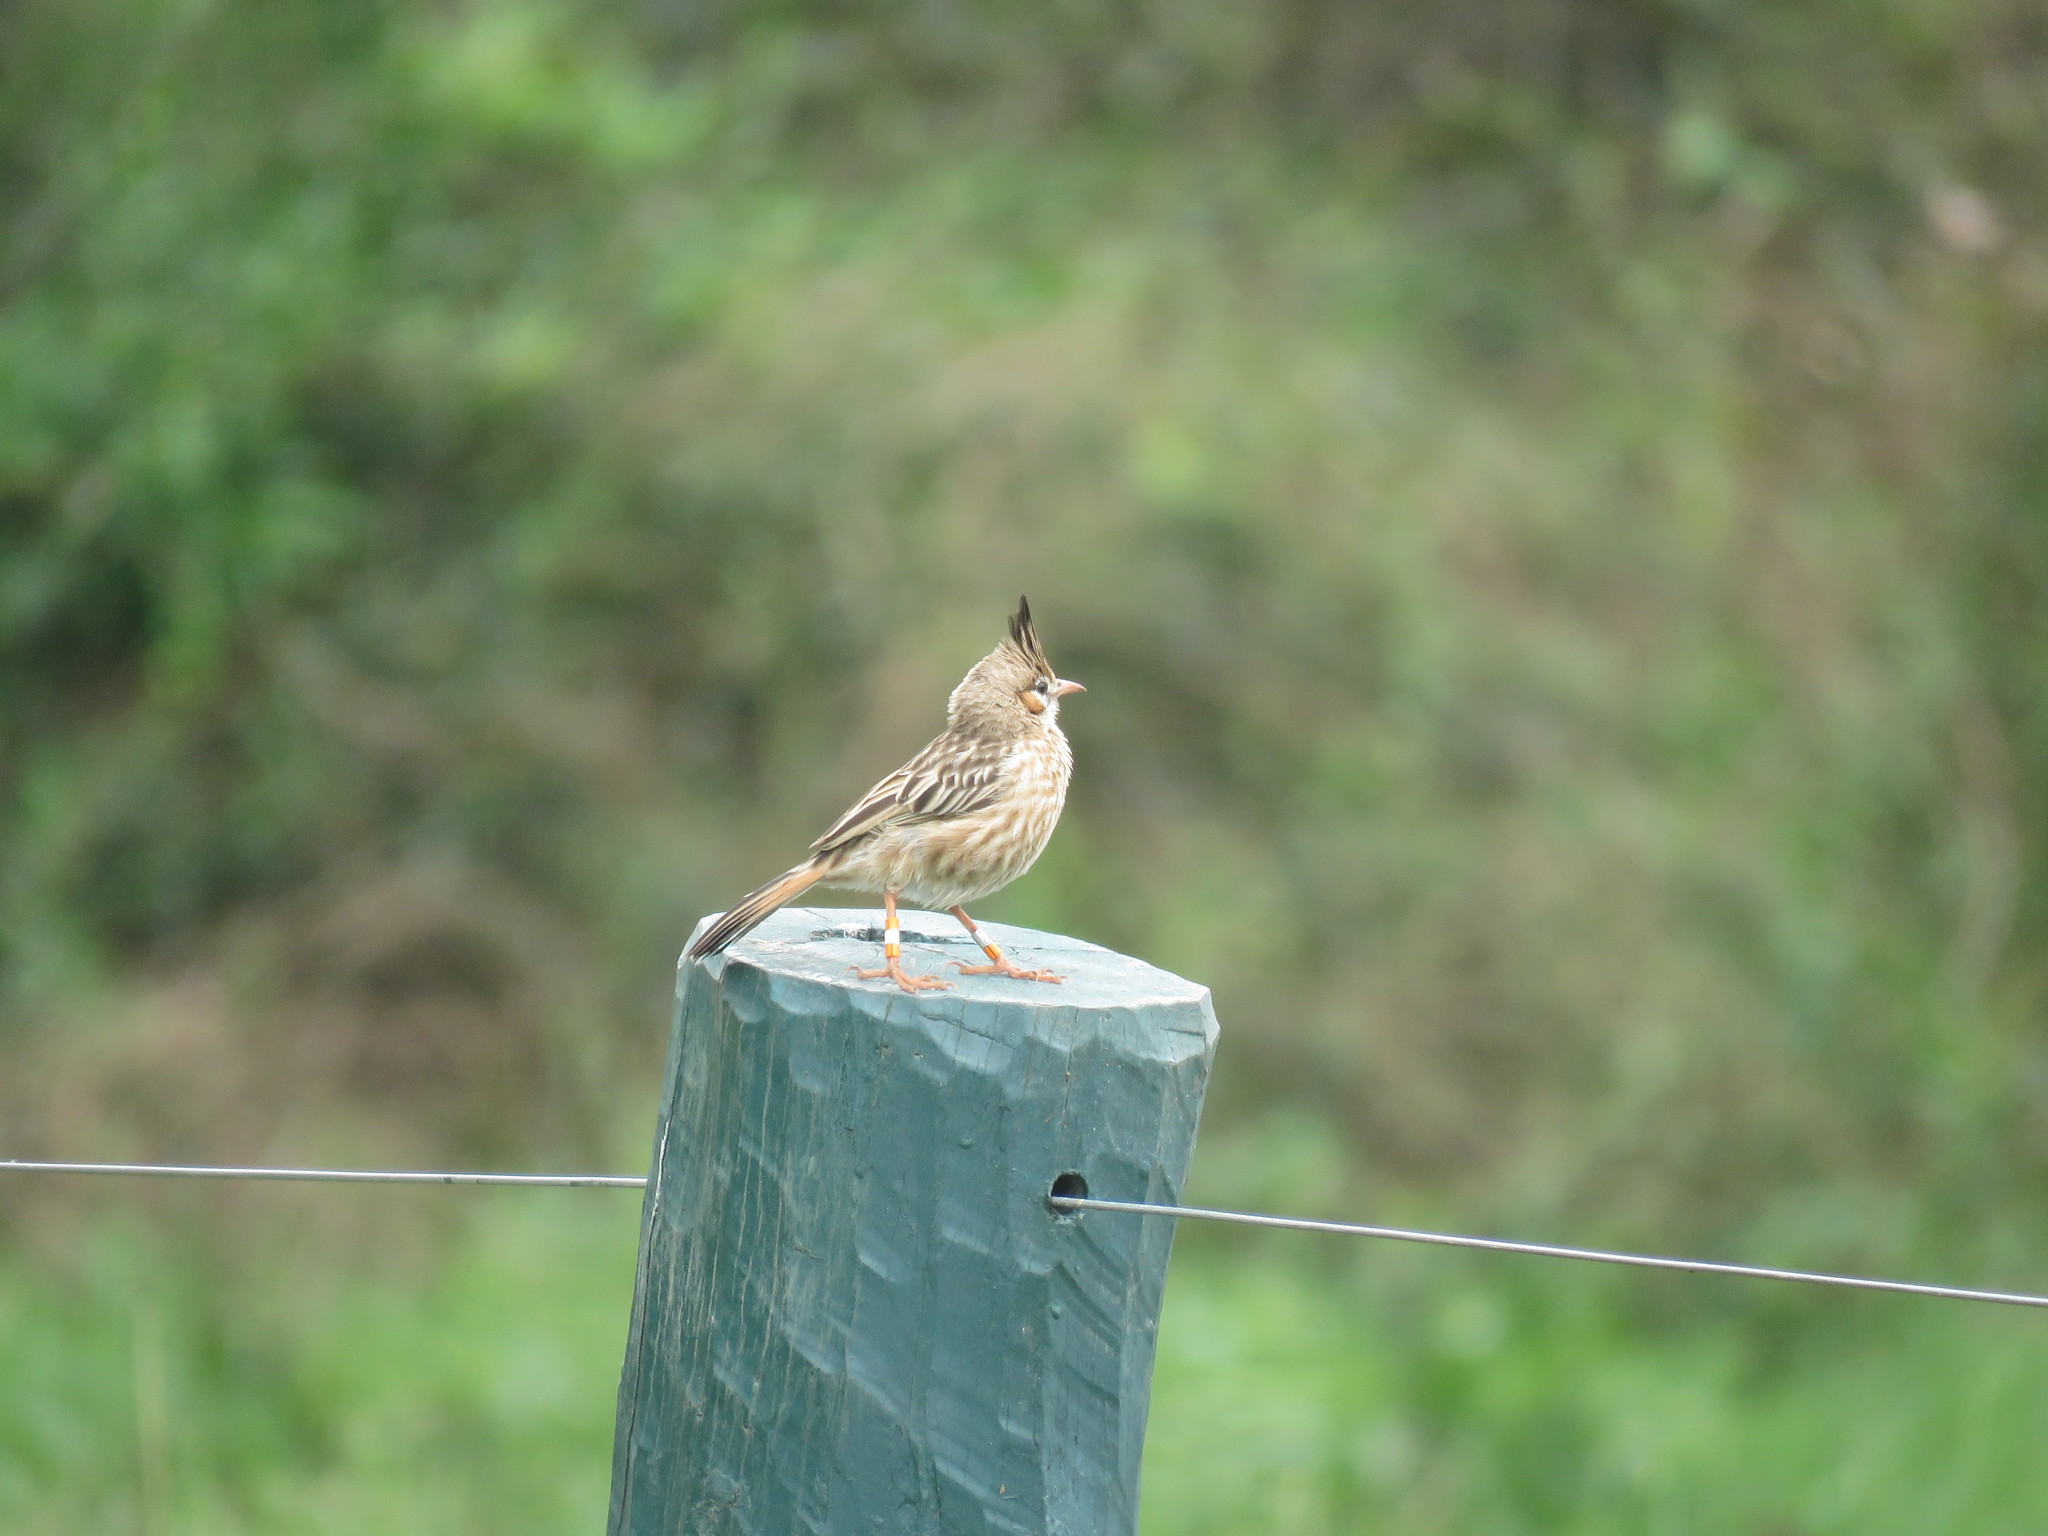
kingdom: Animalia
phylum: Chordata
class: Aves
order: Passeriformes
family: Furnariidae
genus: Coryphistera
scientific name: Coryphistera alaudina
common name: Lark-like brushrunner
